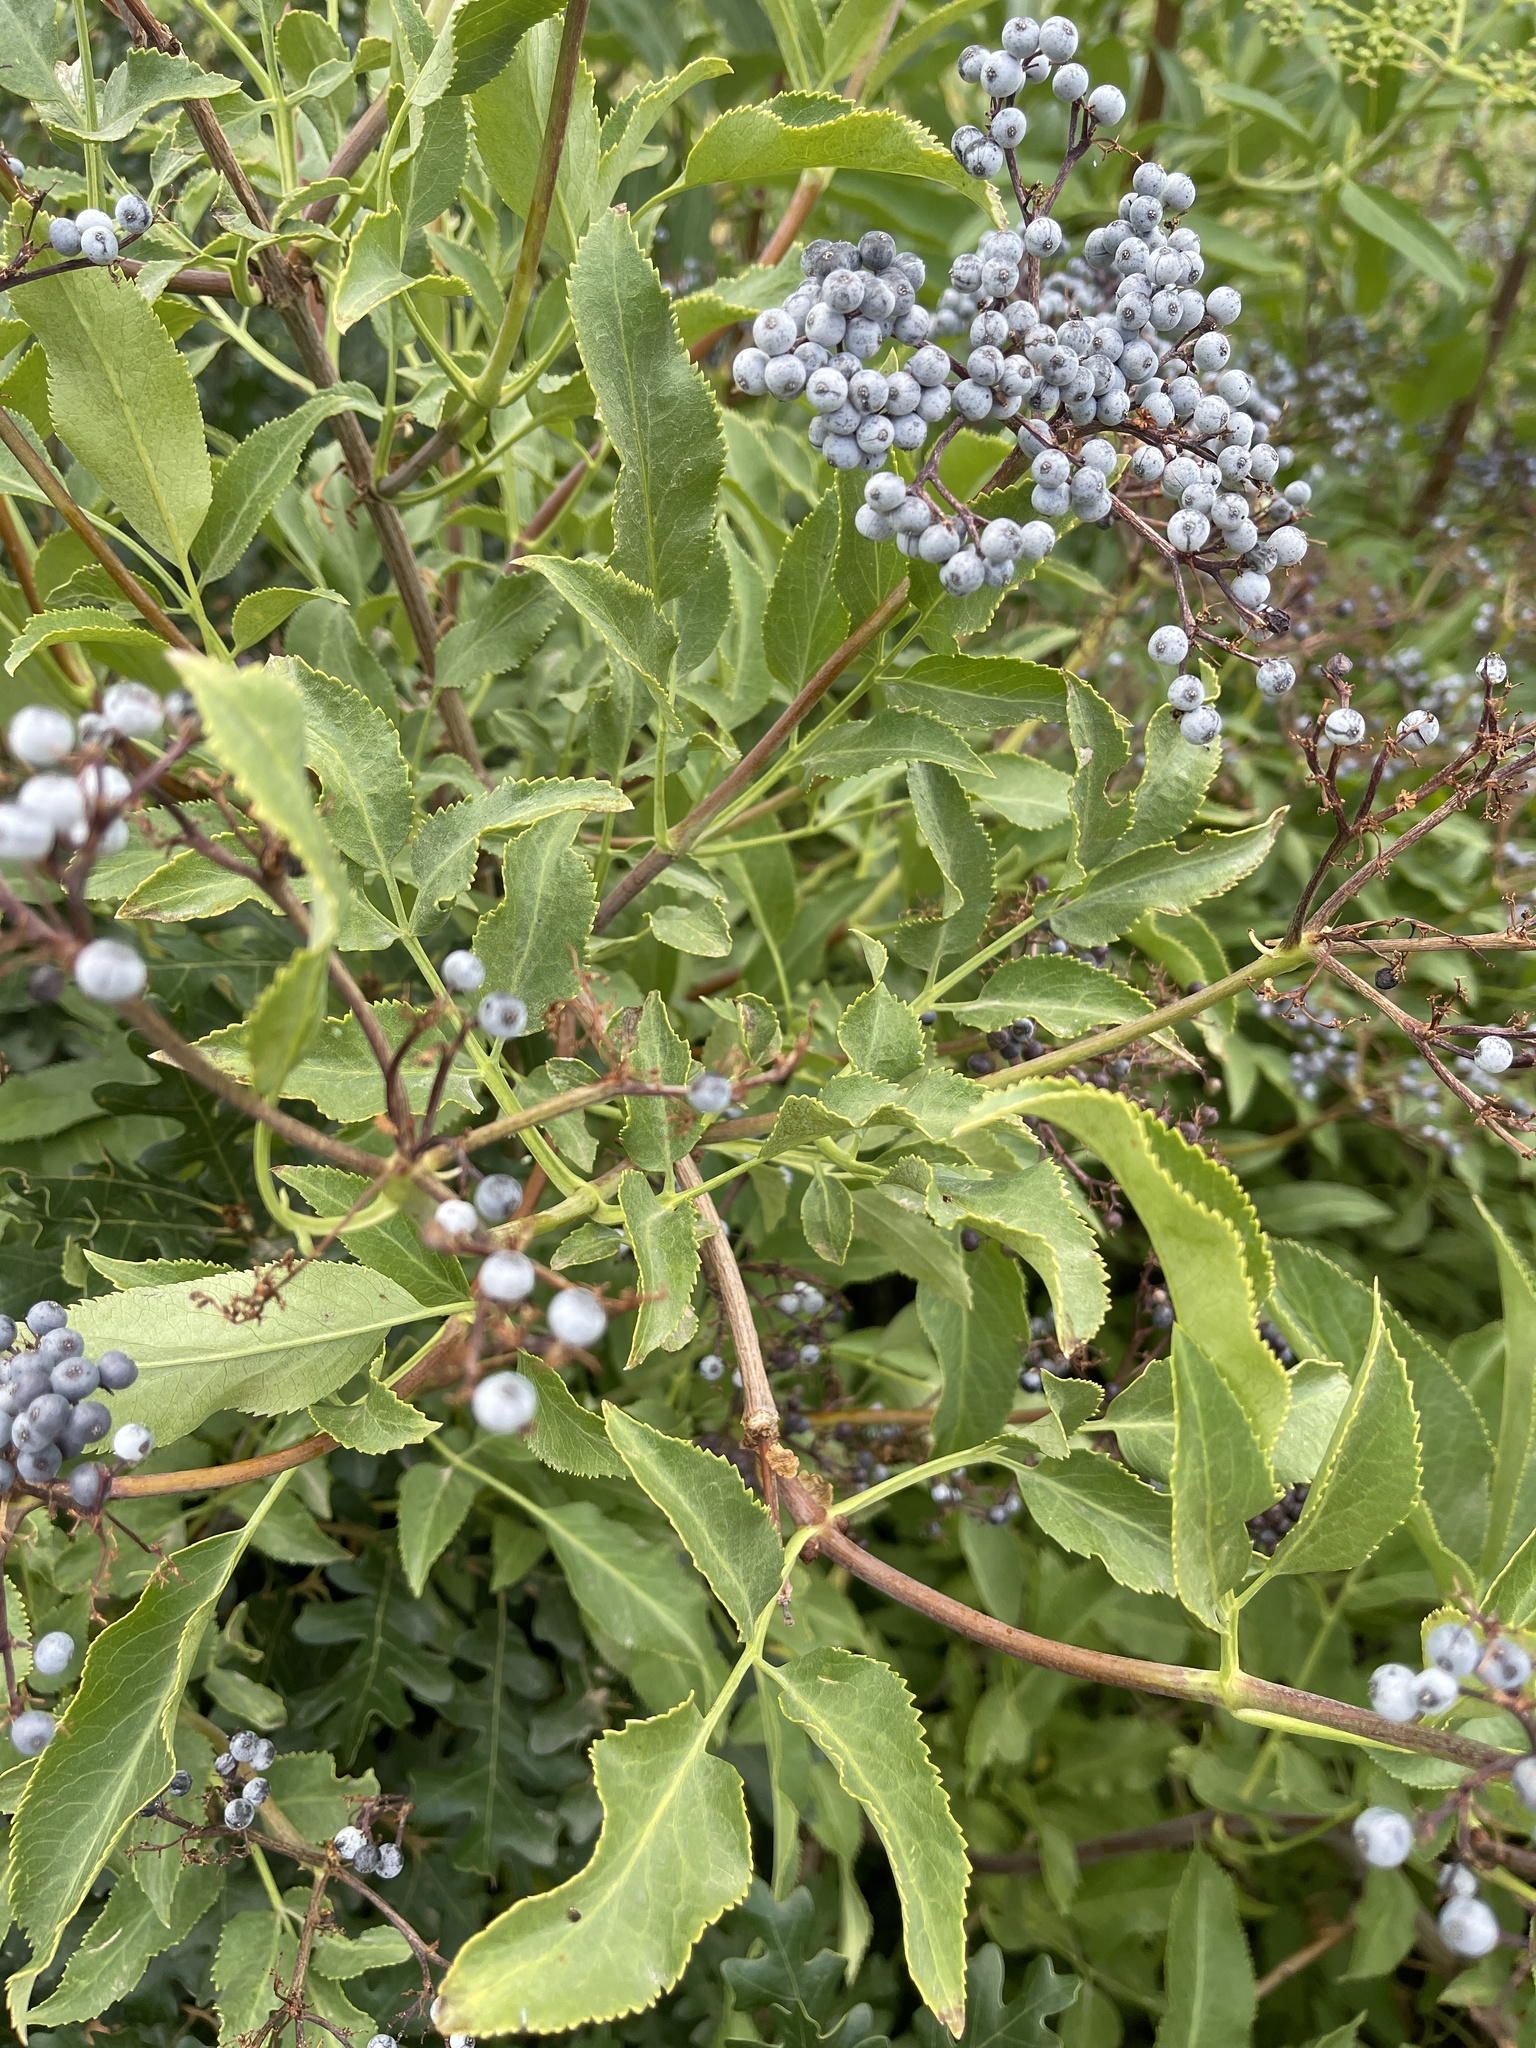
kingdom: Plantae
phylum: Tracheophyta
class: Magnoliopsida
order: Dipsacales
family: Viburnaceae
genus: Sambucus
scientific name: Sambucus cerulea
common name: Blue elder
